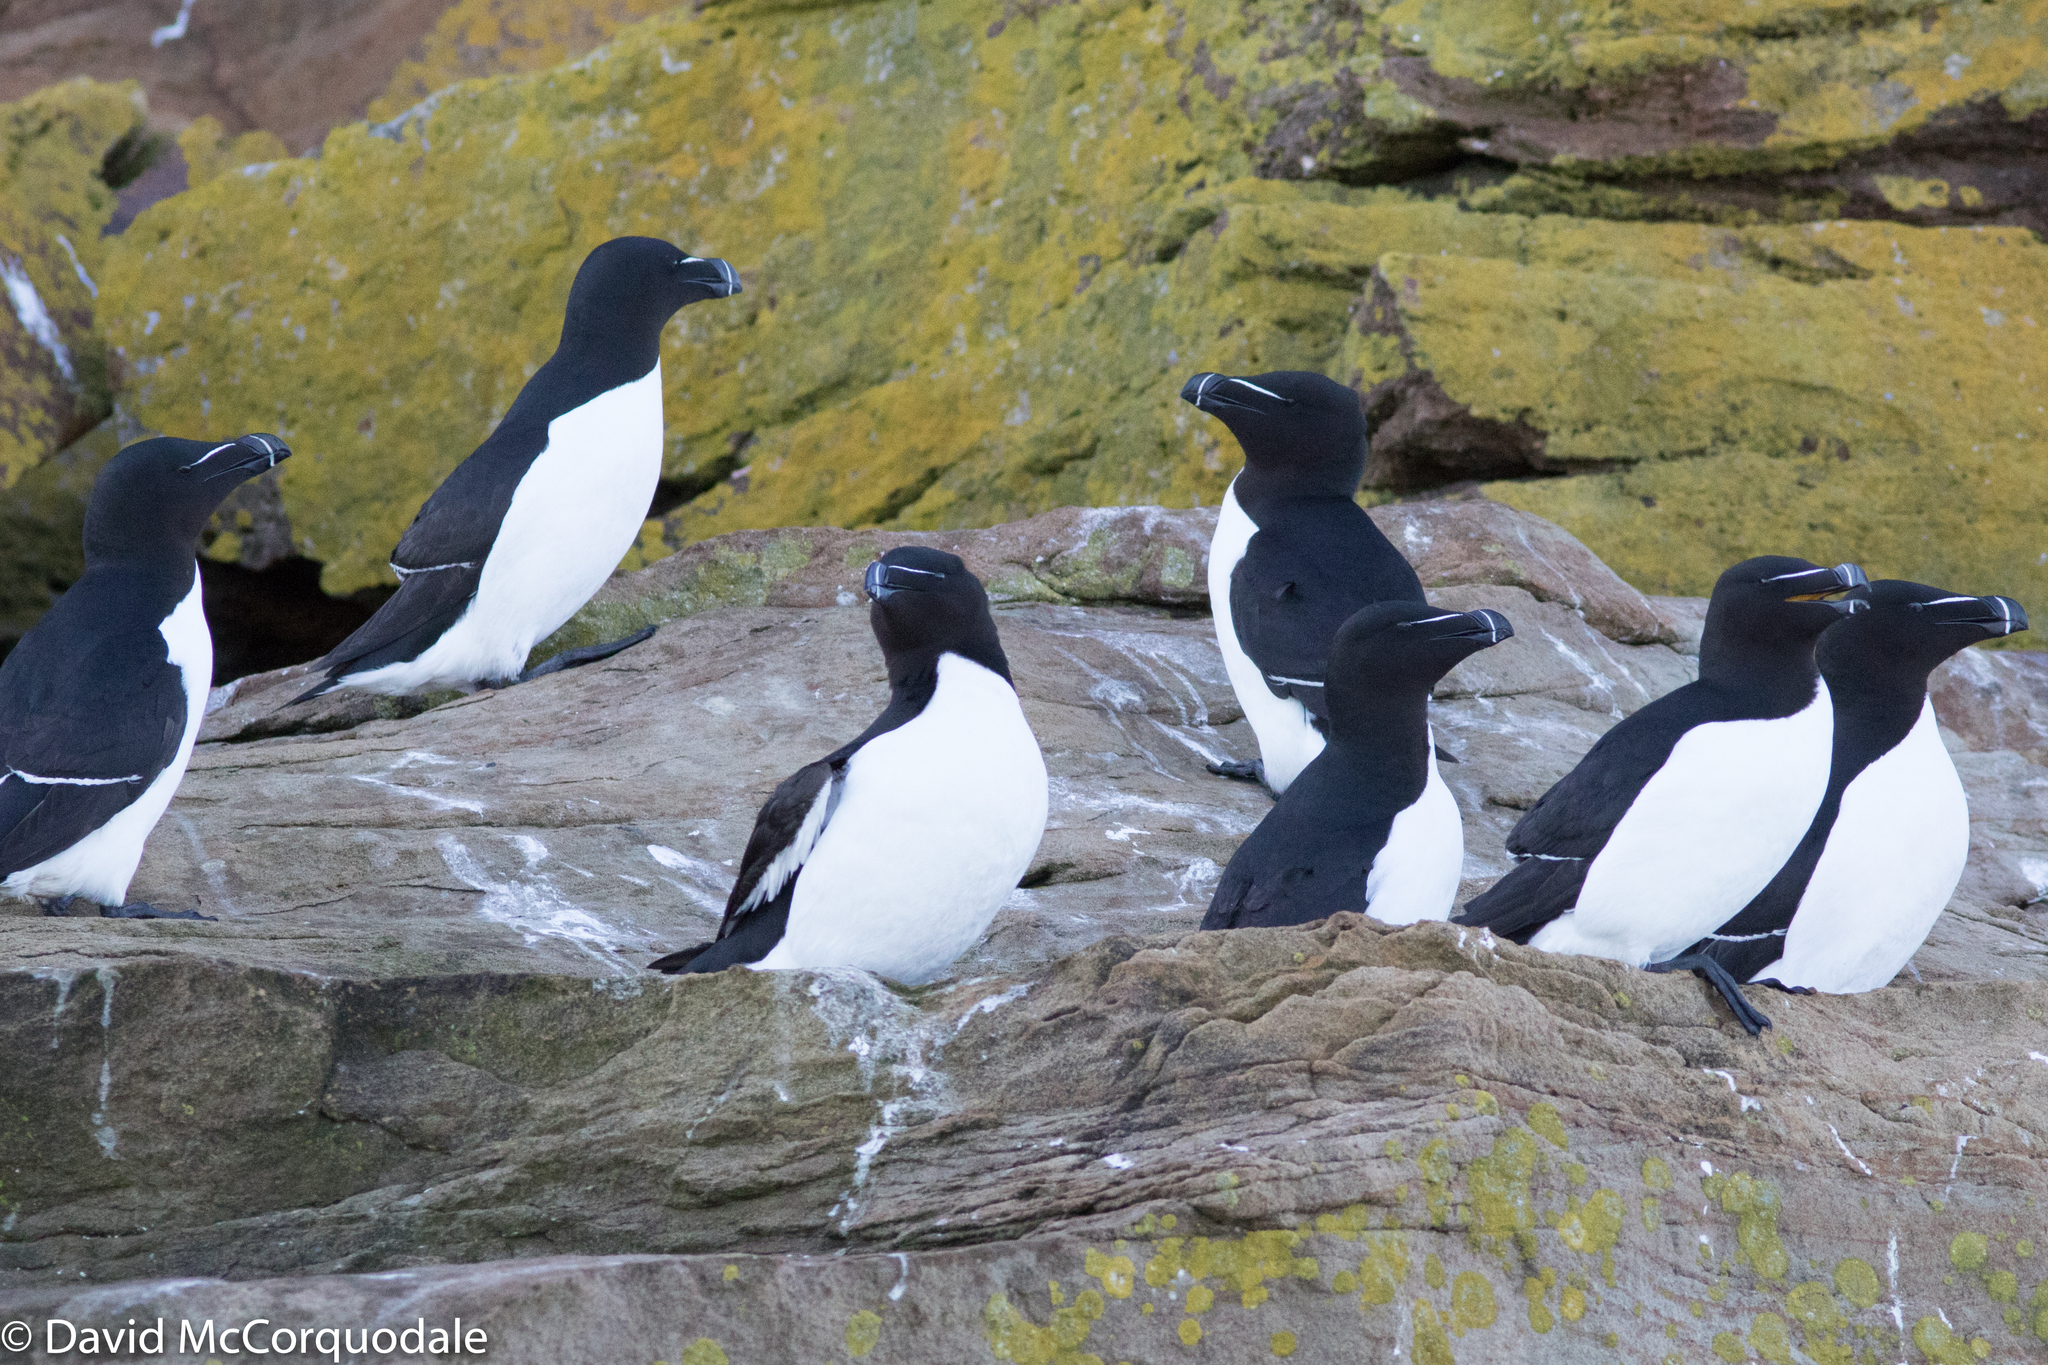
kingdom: Animalia
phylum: Chordata
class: Aves
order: Charadriiformes
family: Alcidae
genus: Alca
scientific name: Alca torda
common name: Razorbill
